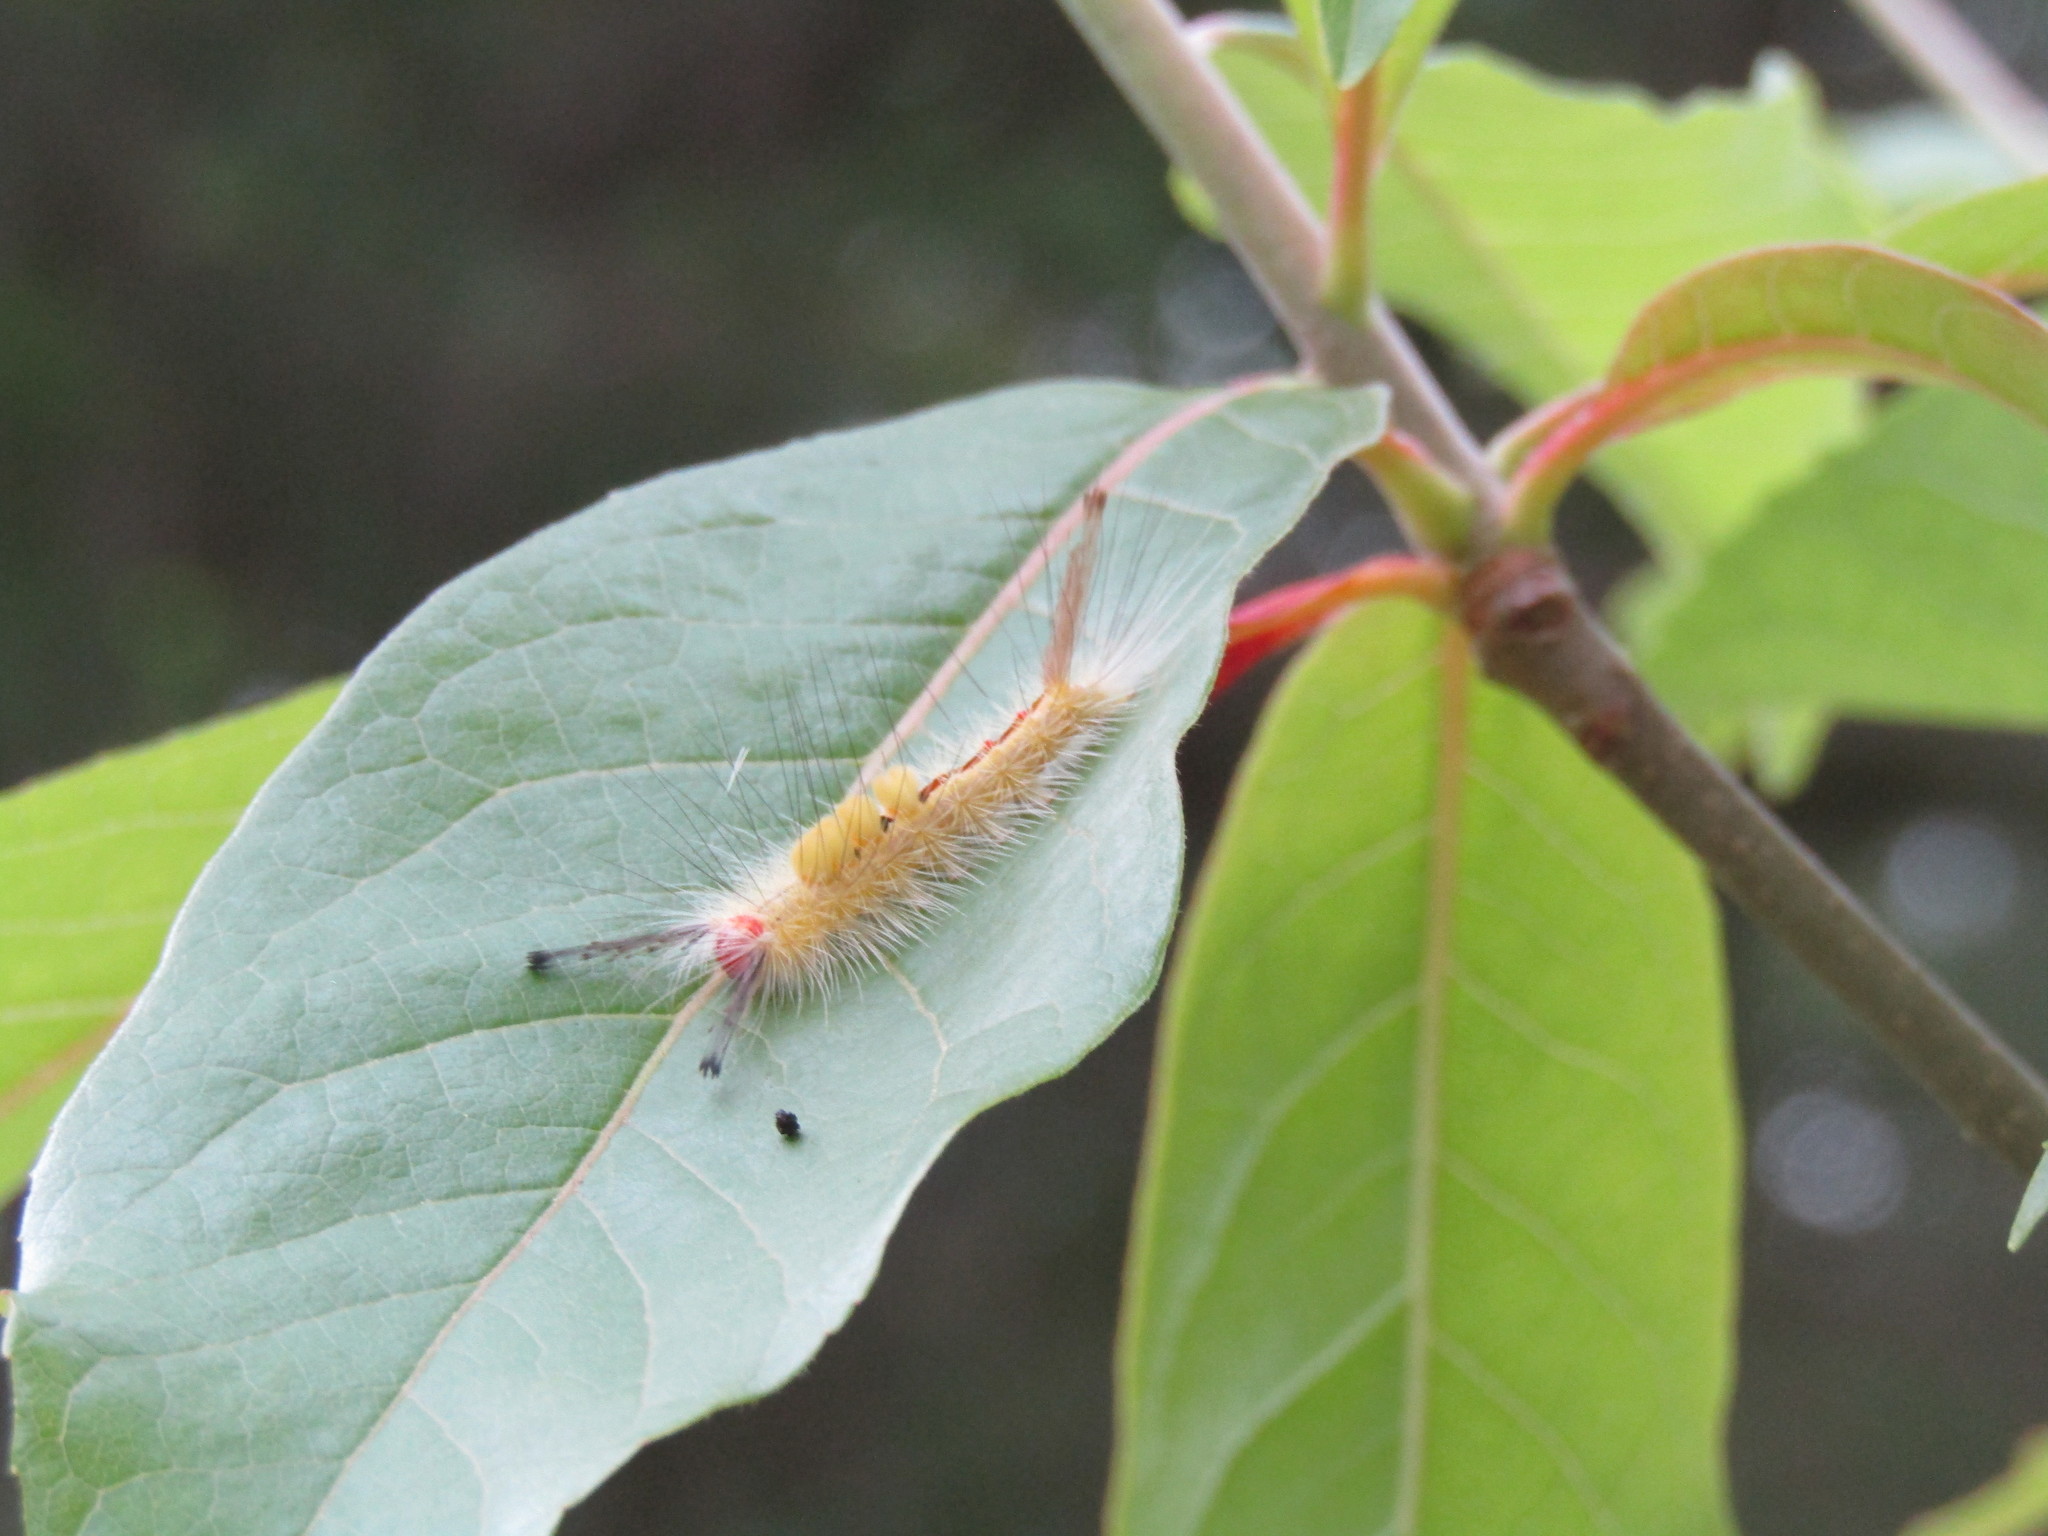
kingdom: Animalia
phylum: Arthropoda
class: Insecta
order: Lepidoptera
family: Erebidae
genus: Orgyia
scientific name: Orgyia leucostigma
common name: White-marked tussock moth
